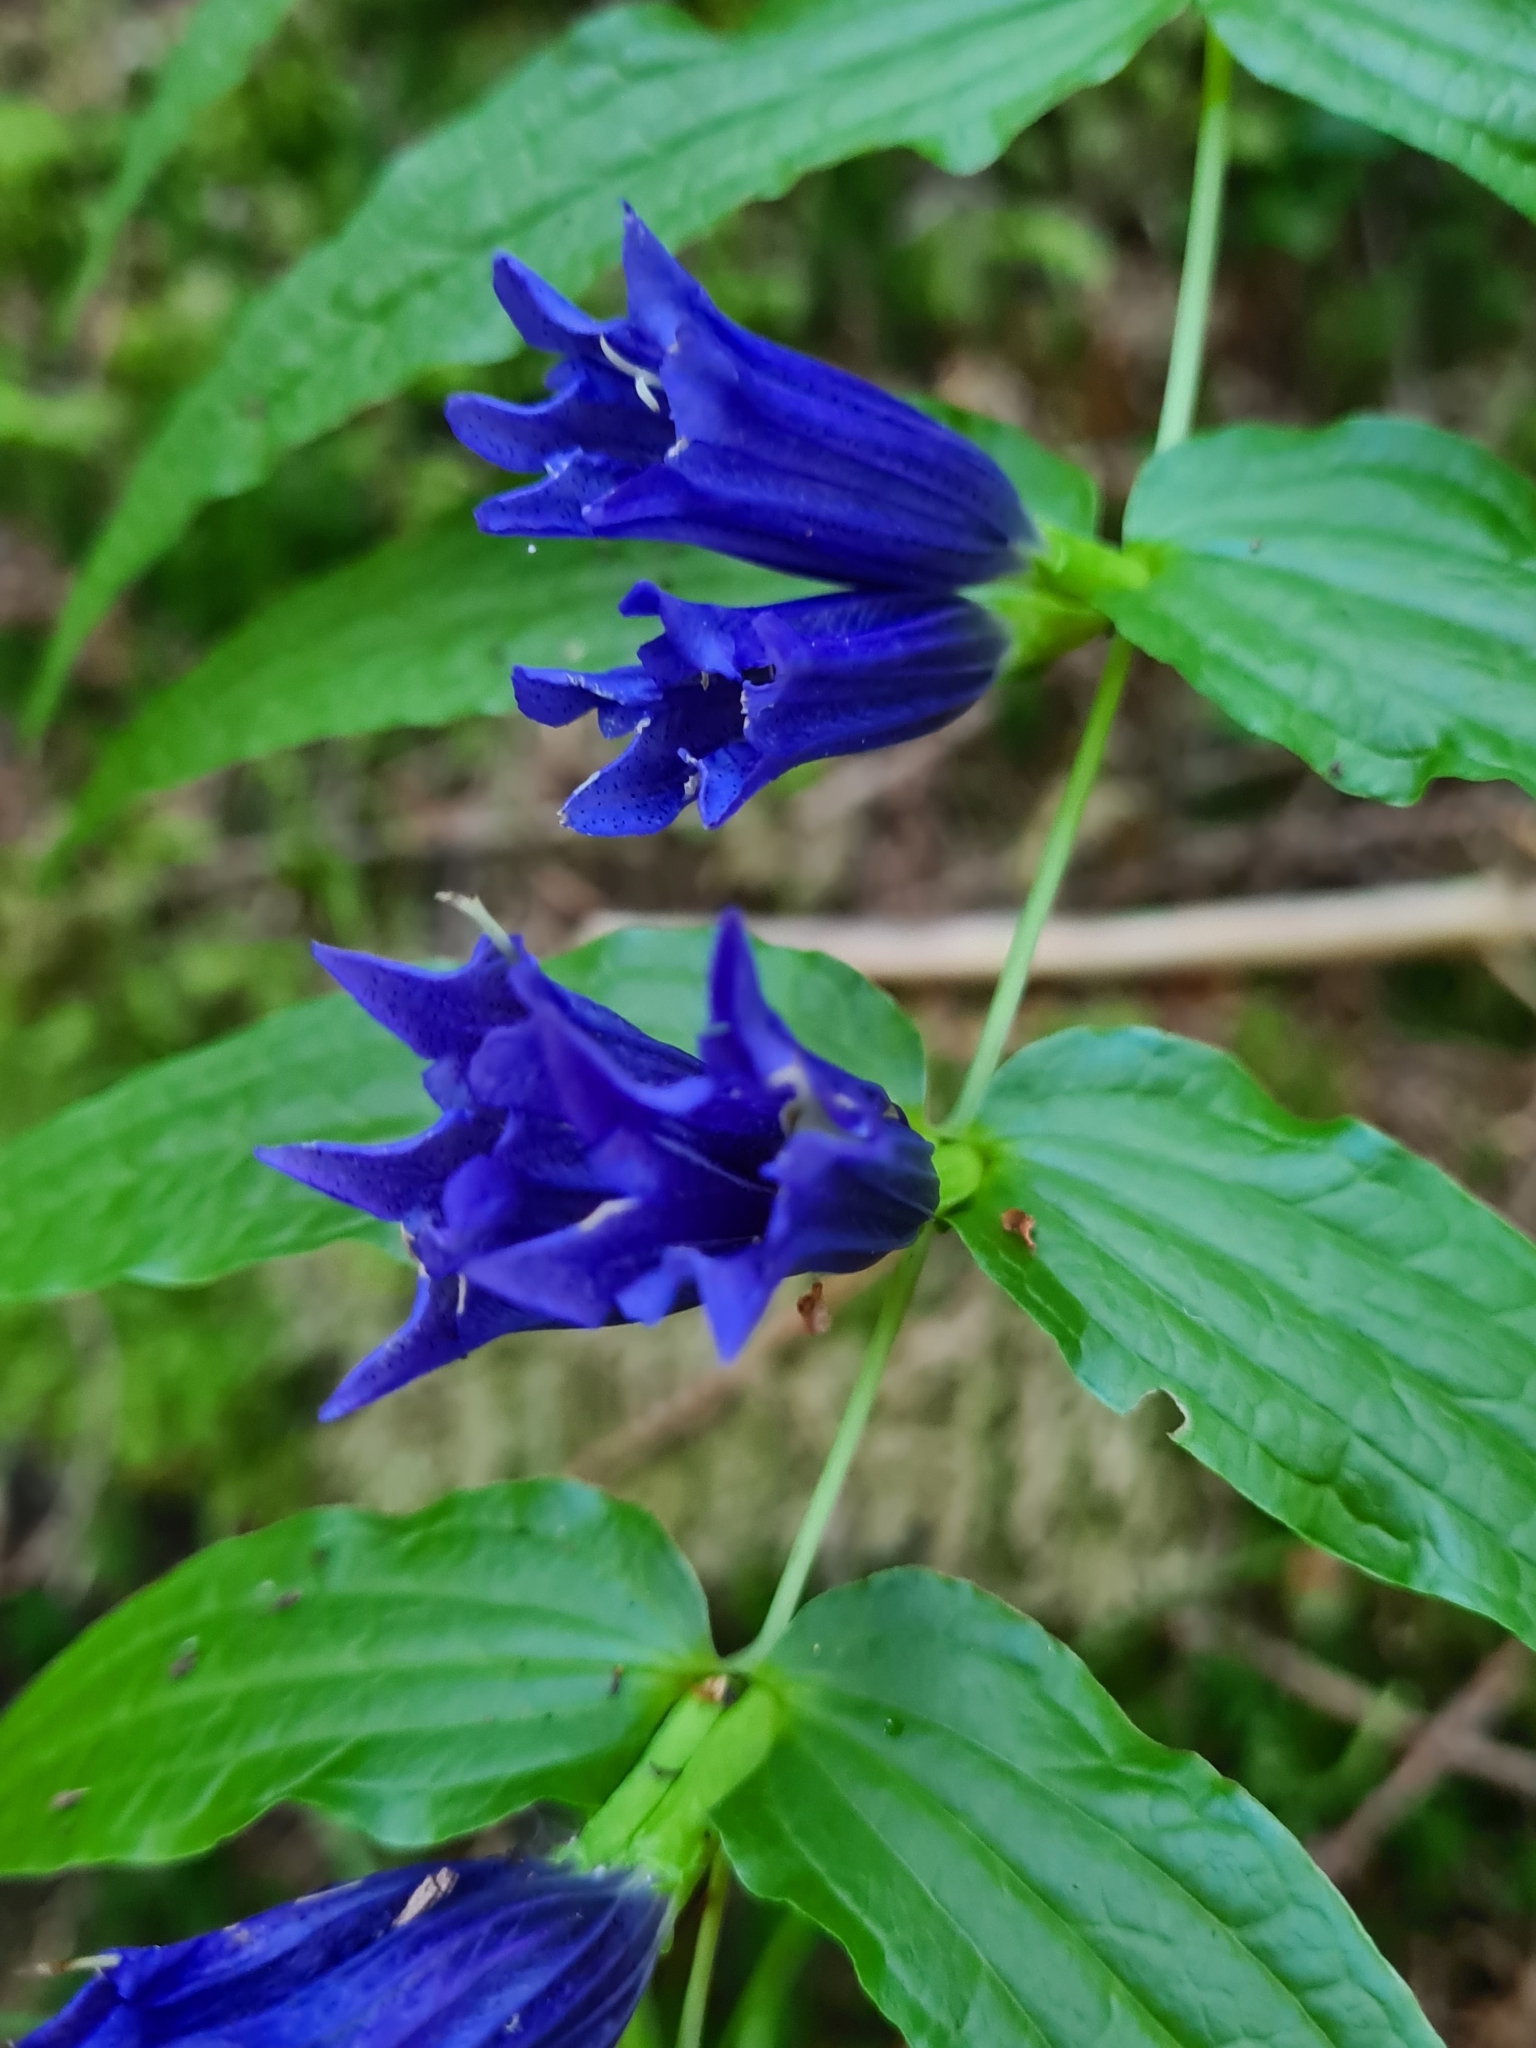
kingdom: Plantae
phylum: Tracheophyta
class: Magnoliopsida
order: Gentianales
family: Gentianaceae
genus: Gentiana
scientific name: Gentiana asclepiadea
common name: Willow gentian
